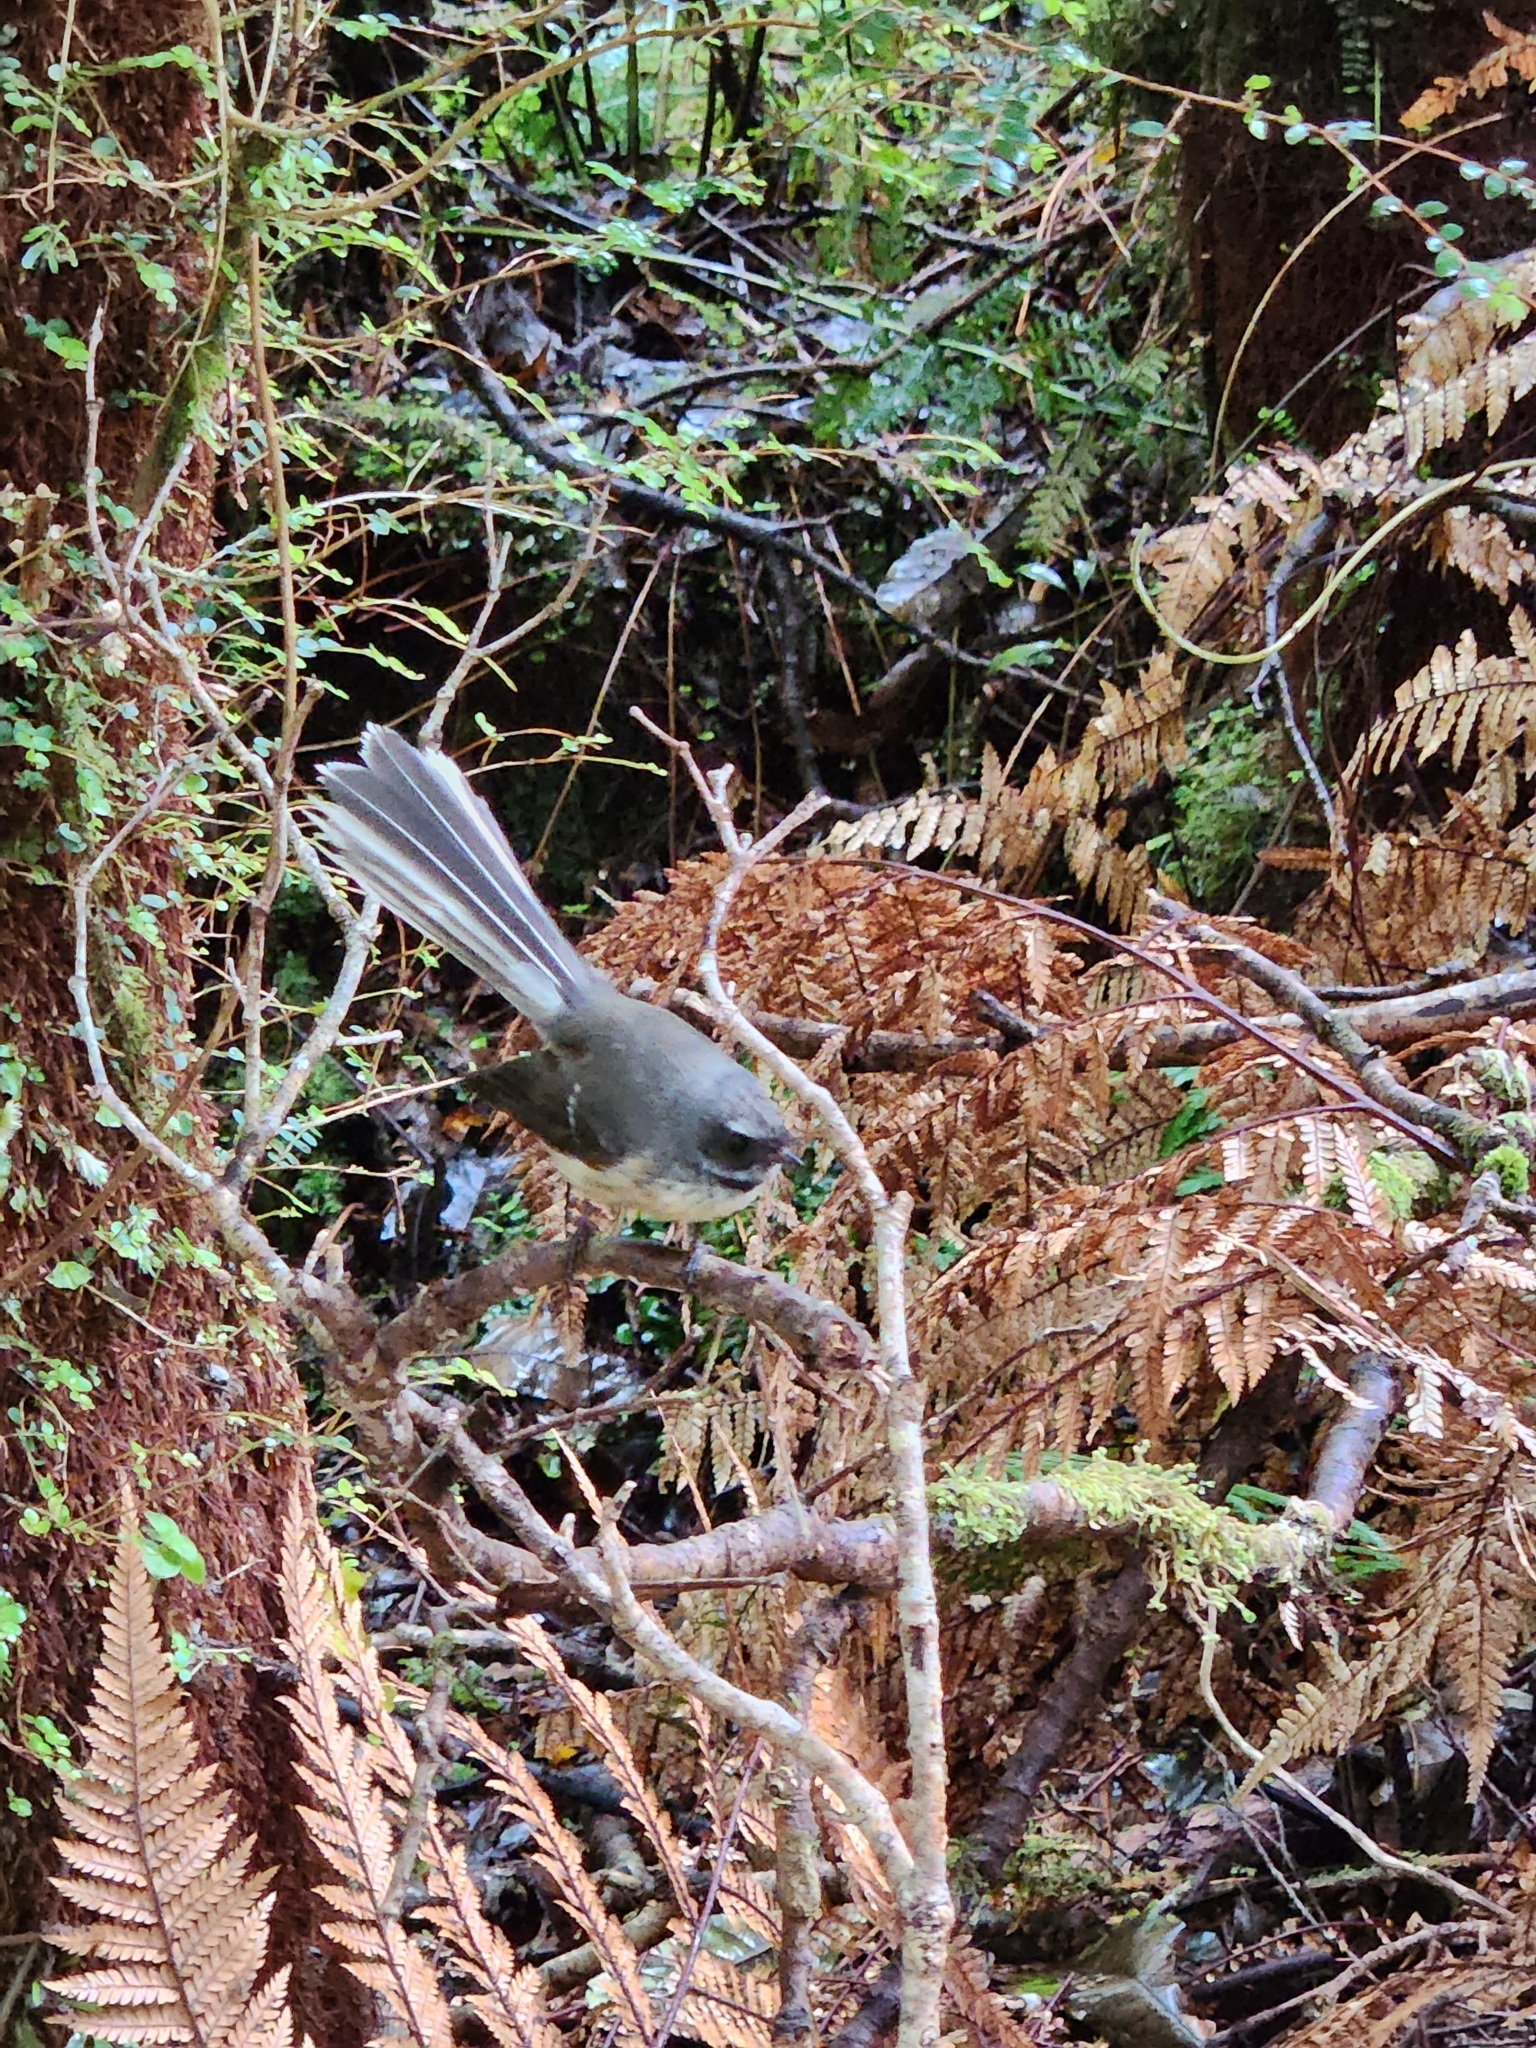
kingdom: Animalia
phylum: Chordata
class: Aves
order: Passeriformes
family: Rhipiduridae
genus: Rhipidura
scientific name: Rhipidura fuliginosa
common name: New zealand fantail
